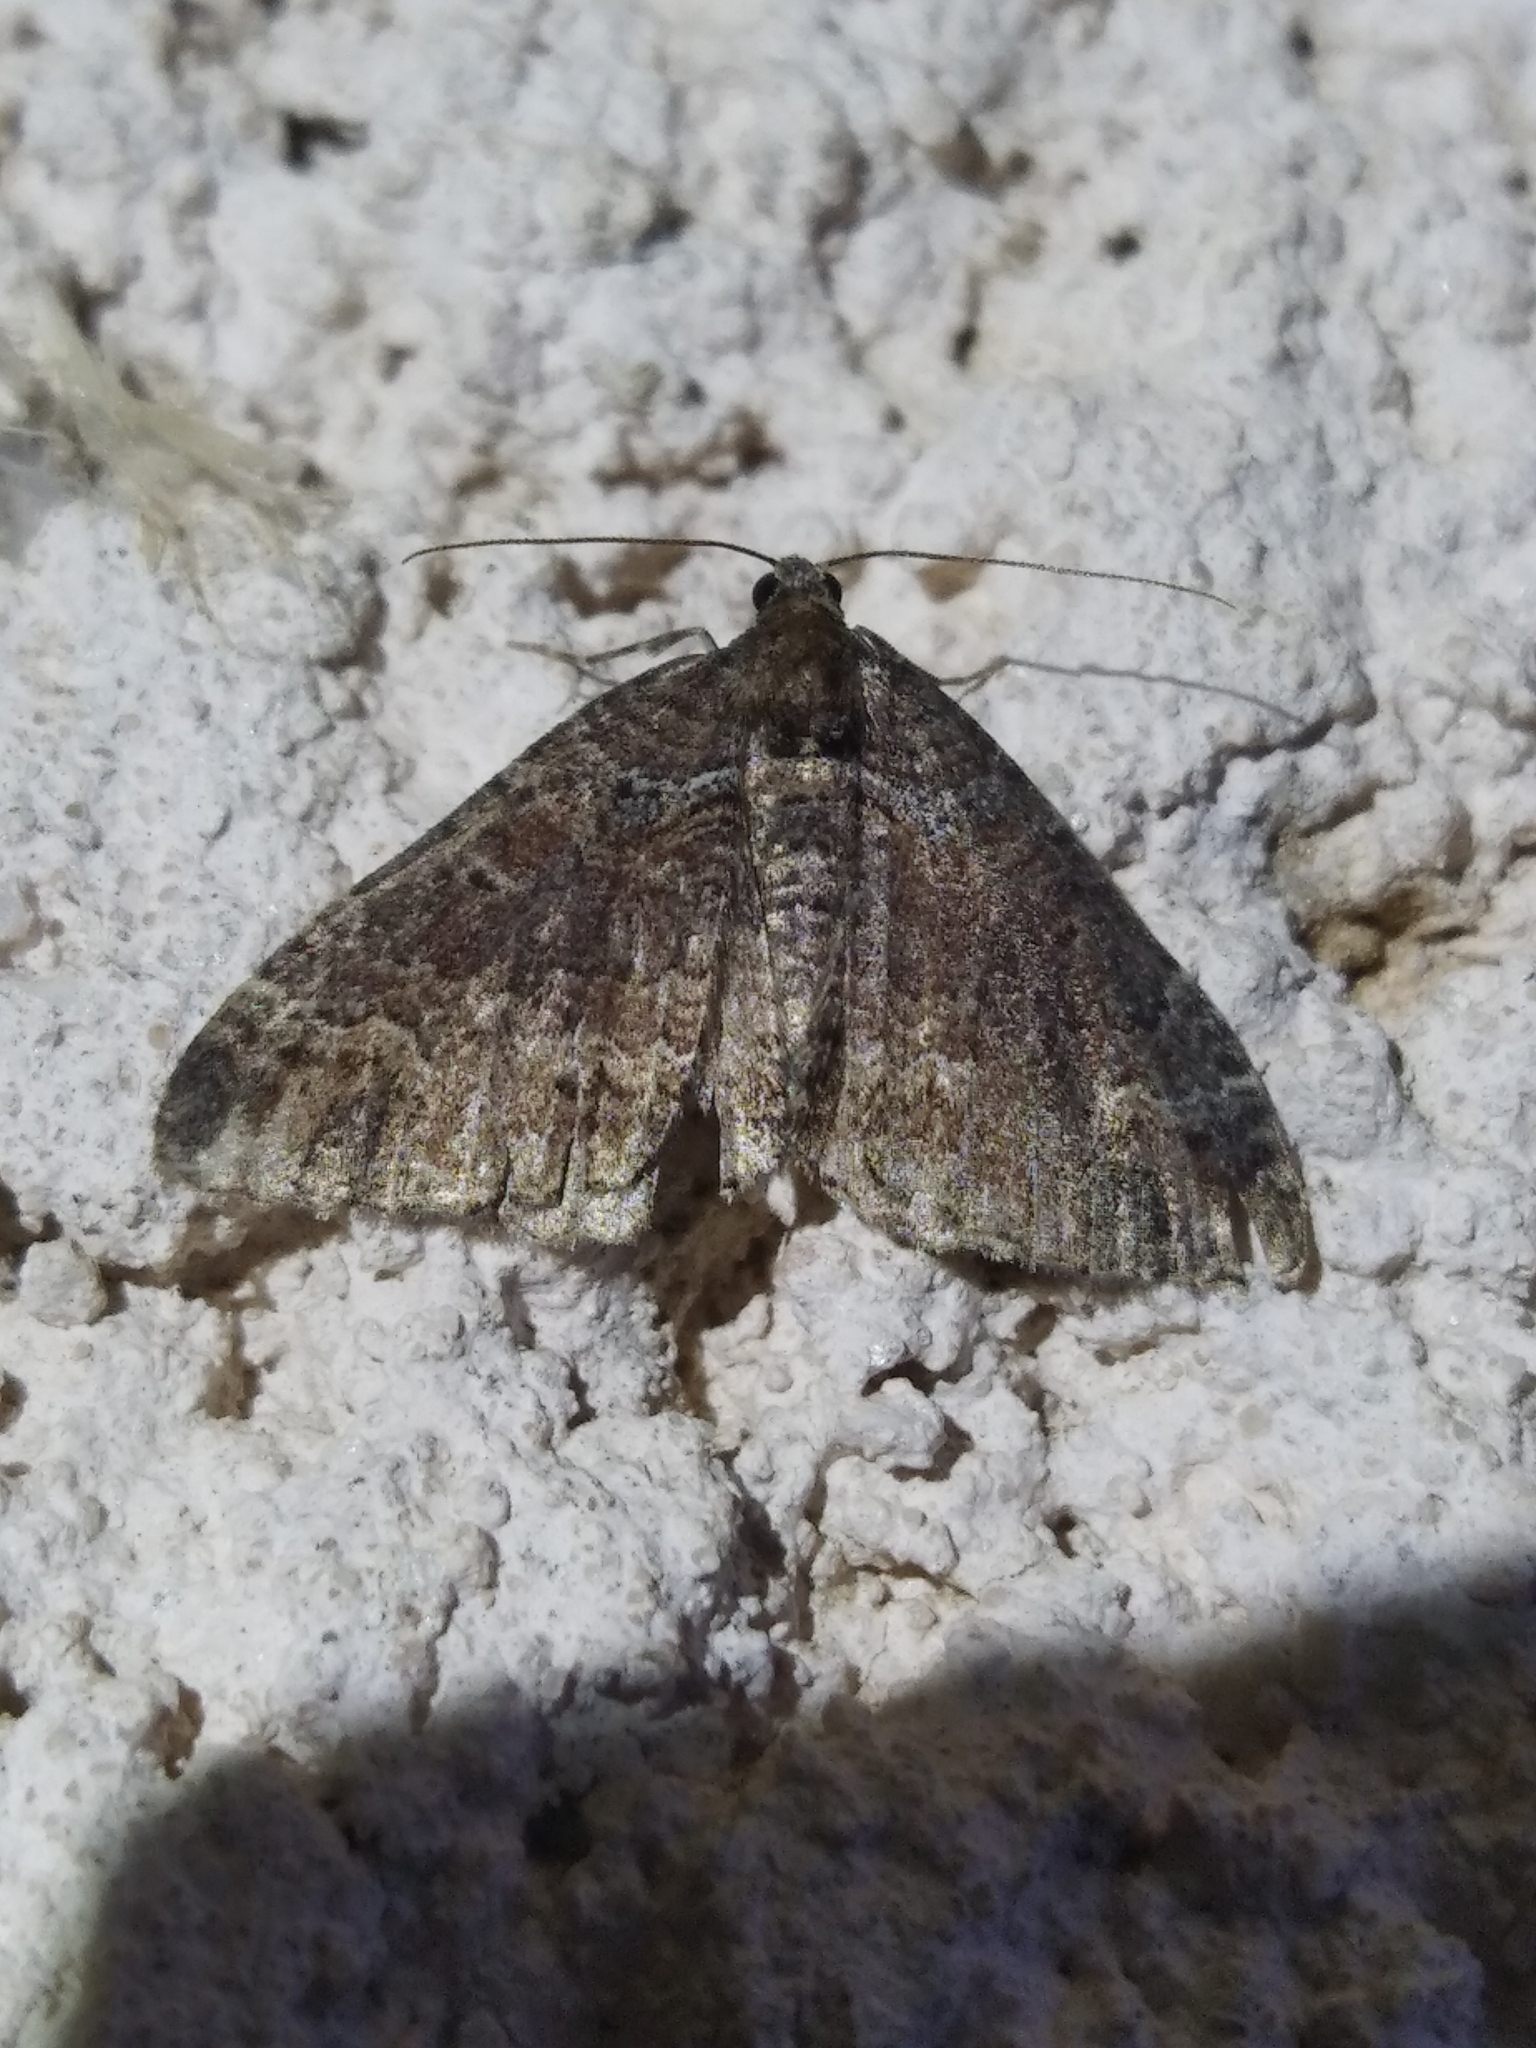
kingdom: Animalia
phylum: Arthropoda
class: Insecta
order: Lepidoptera
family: Geometridae
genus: Catarhoe
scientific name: Catarhoe basochesiata
